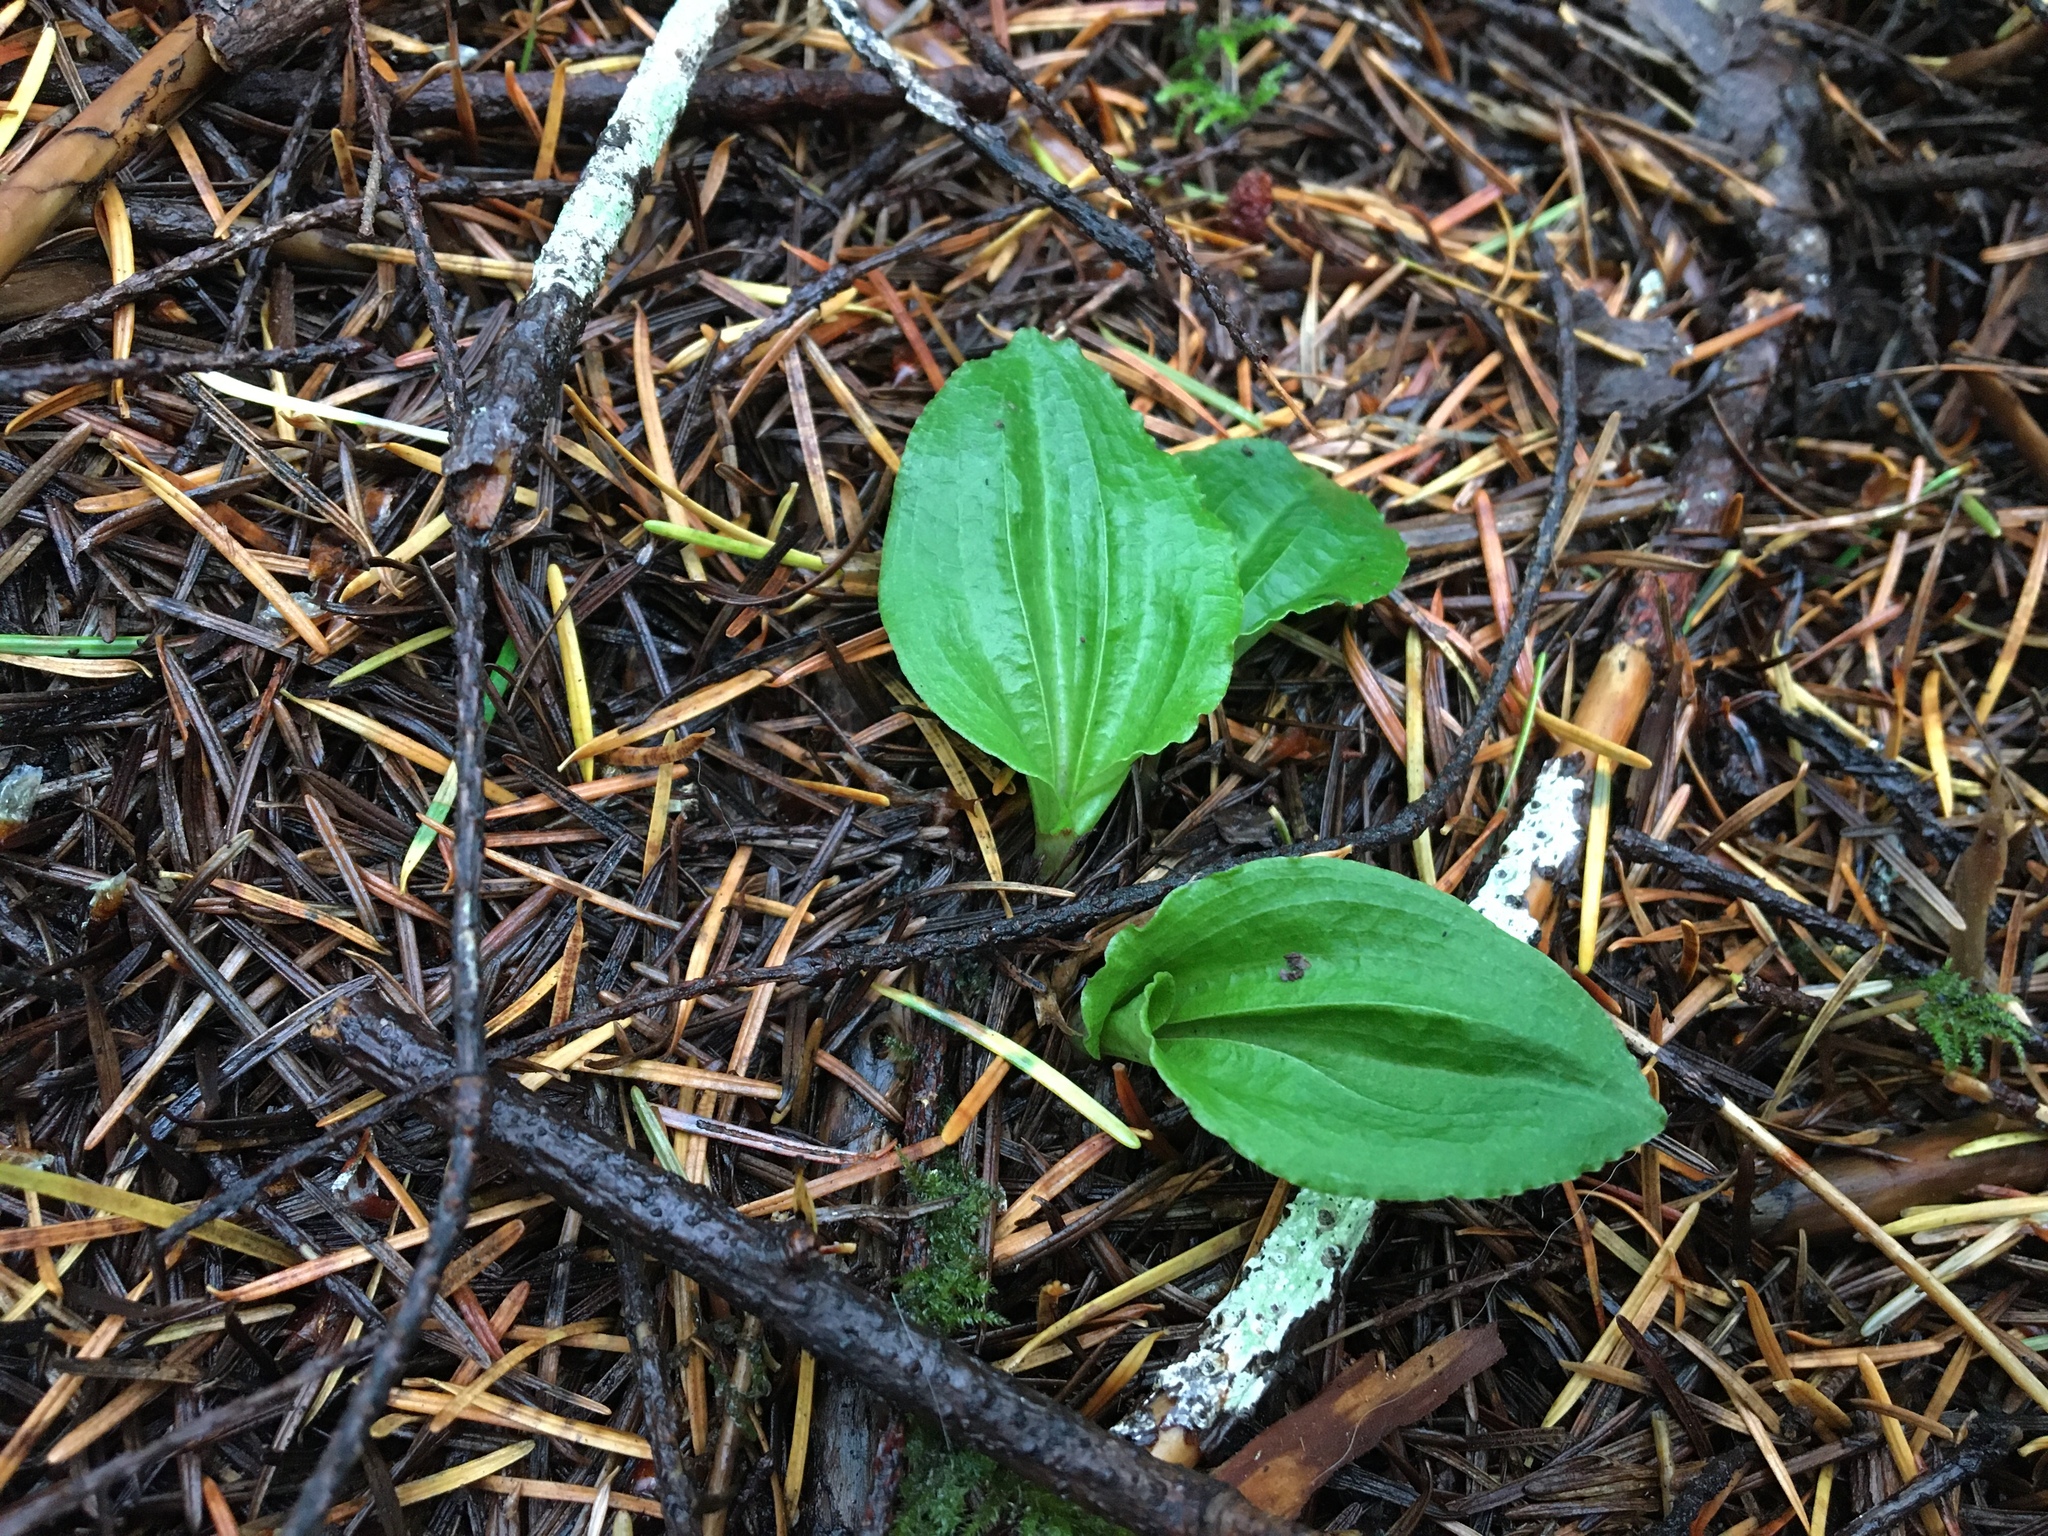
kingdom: Plantae
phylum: Tracheophyta
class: Liliopsida
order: Asparagales
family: Orchidaceae
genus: Calypso
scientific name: Calypso bulbosa
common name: Calypso
